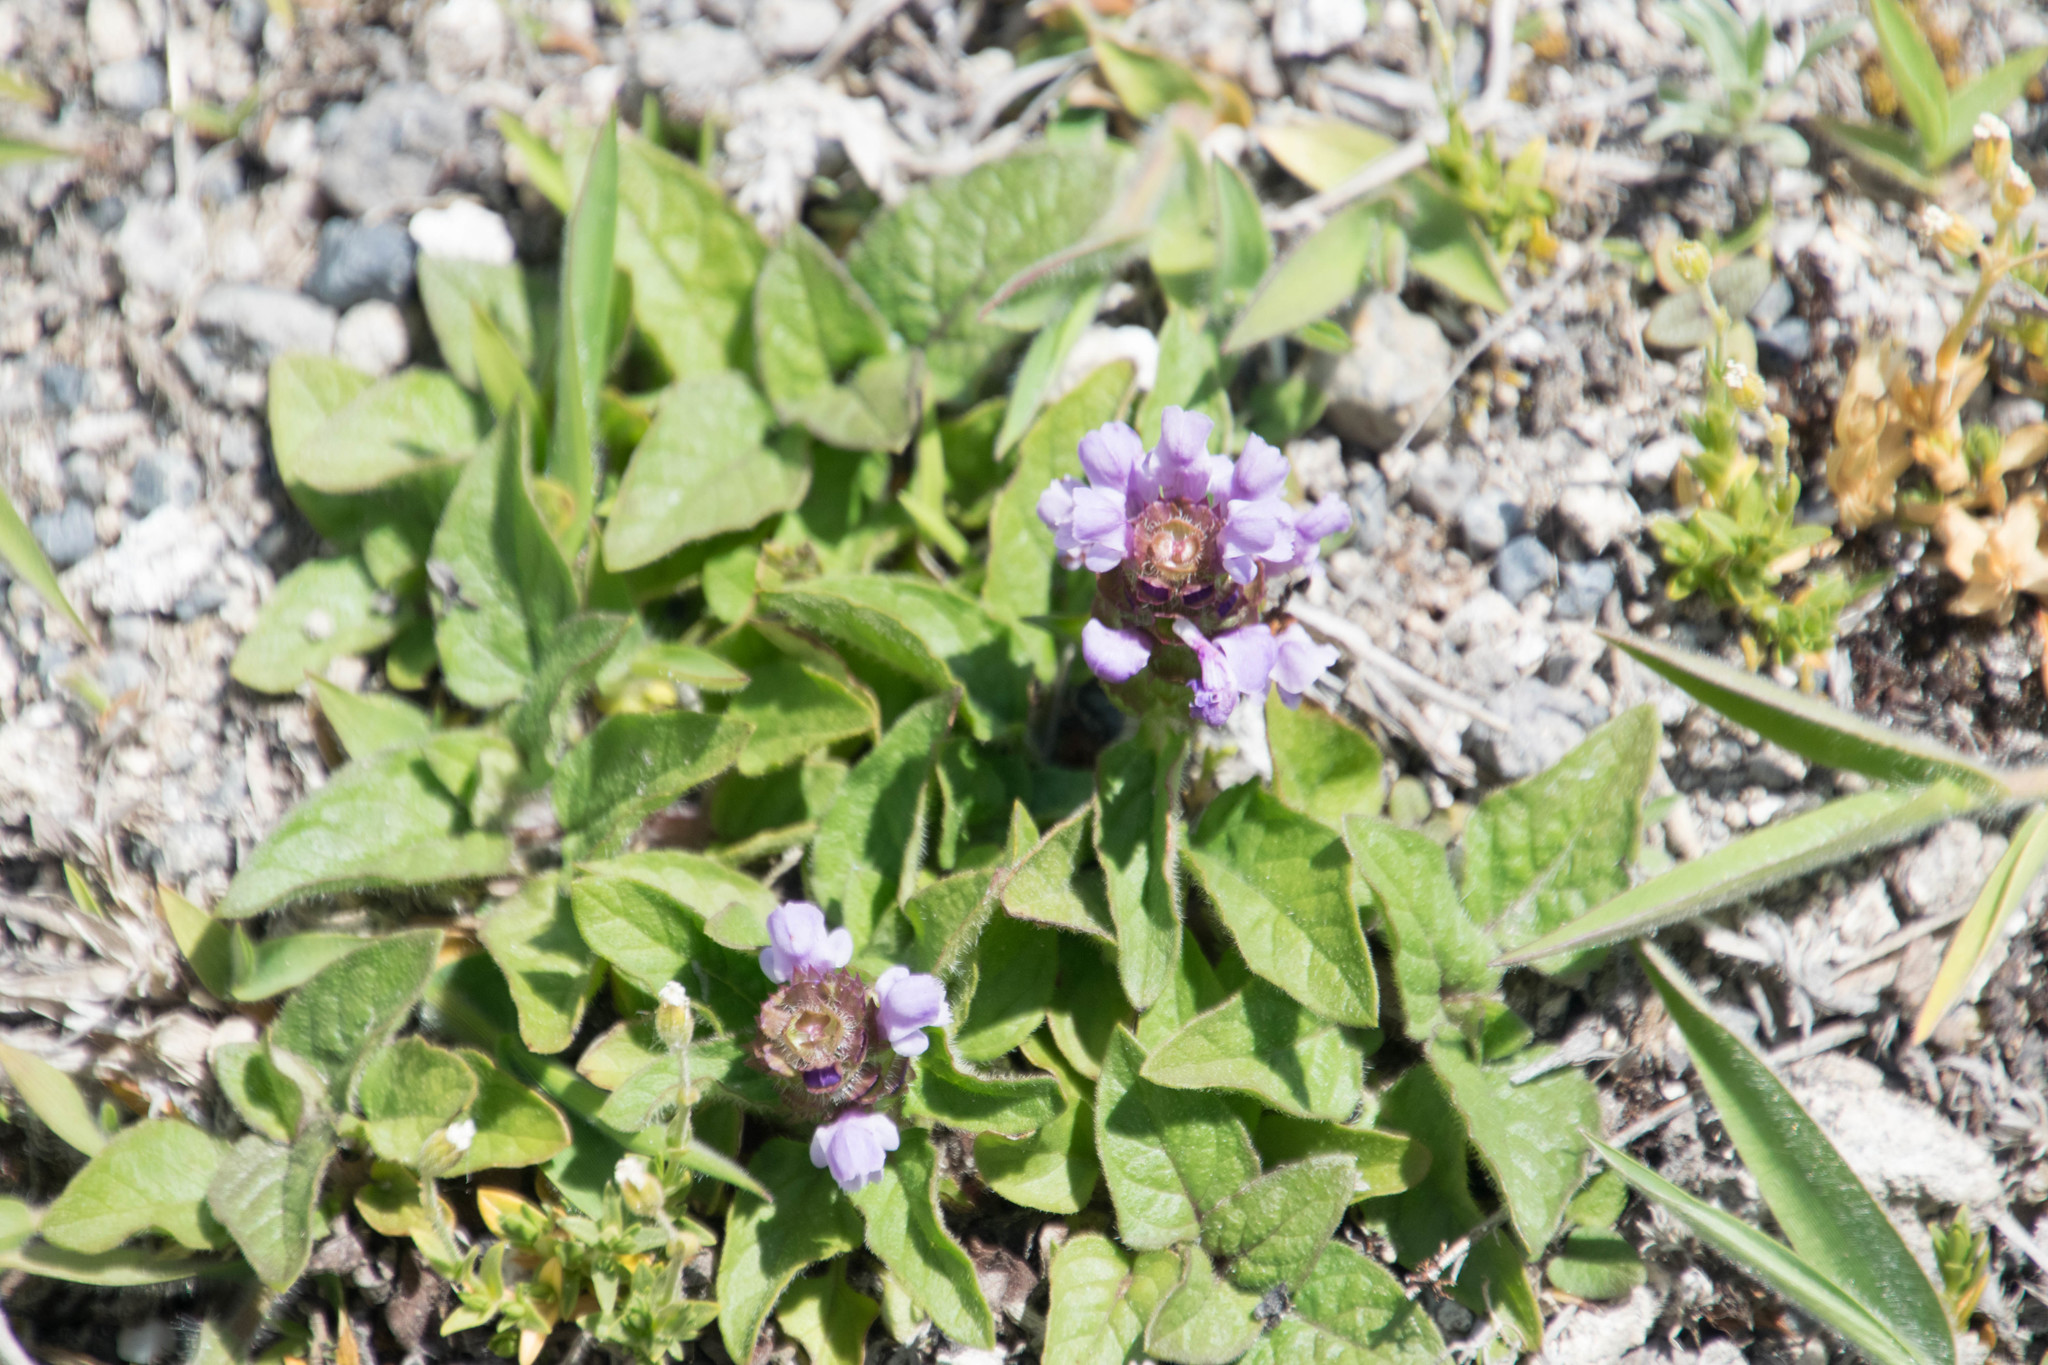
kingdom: Plantae
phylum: Tracheophyta
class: Magnoliopsida
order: Lamiales
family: Lamiaceae
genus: Prunella
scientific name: Prunella vulgaris
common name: Heal-all
